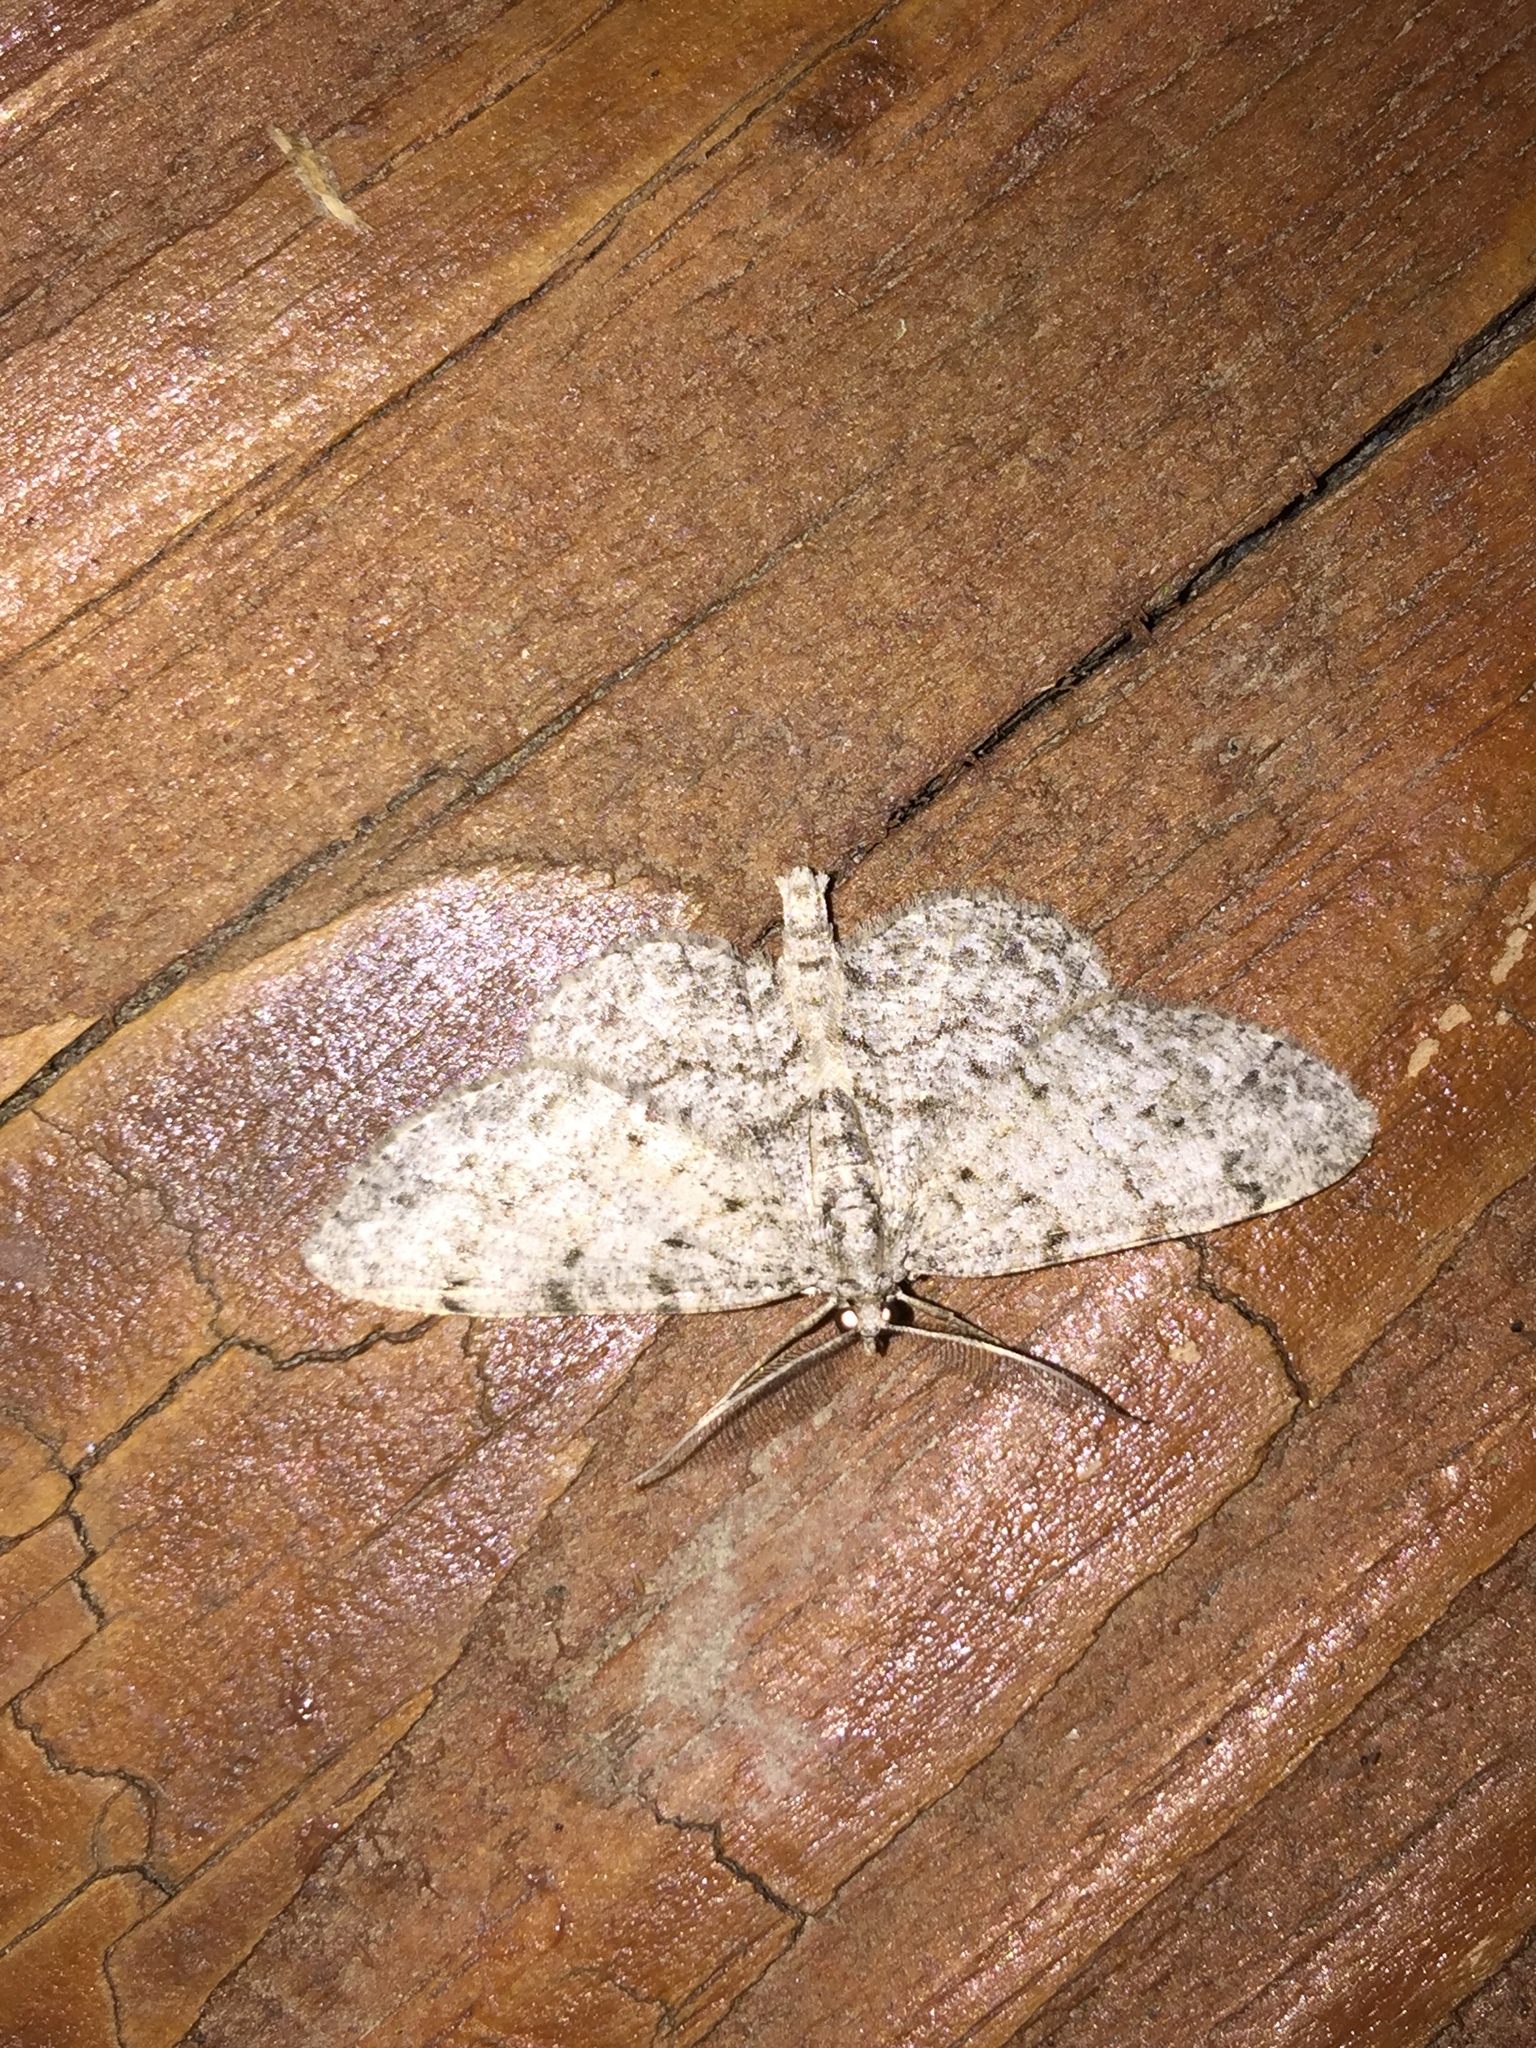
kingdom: Animalia
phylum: Arthropoda
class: Insecta
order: Lepidoptera
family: Geometridae
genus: Protoboarmia
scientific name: Protoboarmia porcelaria
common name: Porcelain gray
